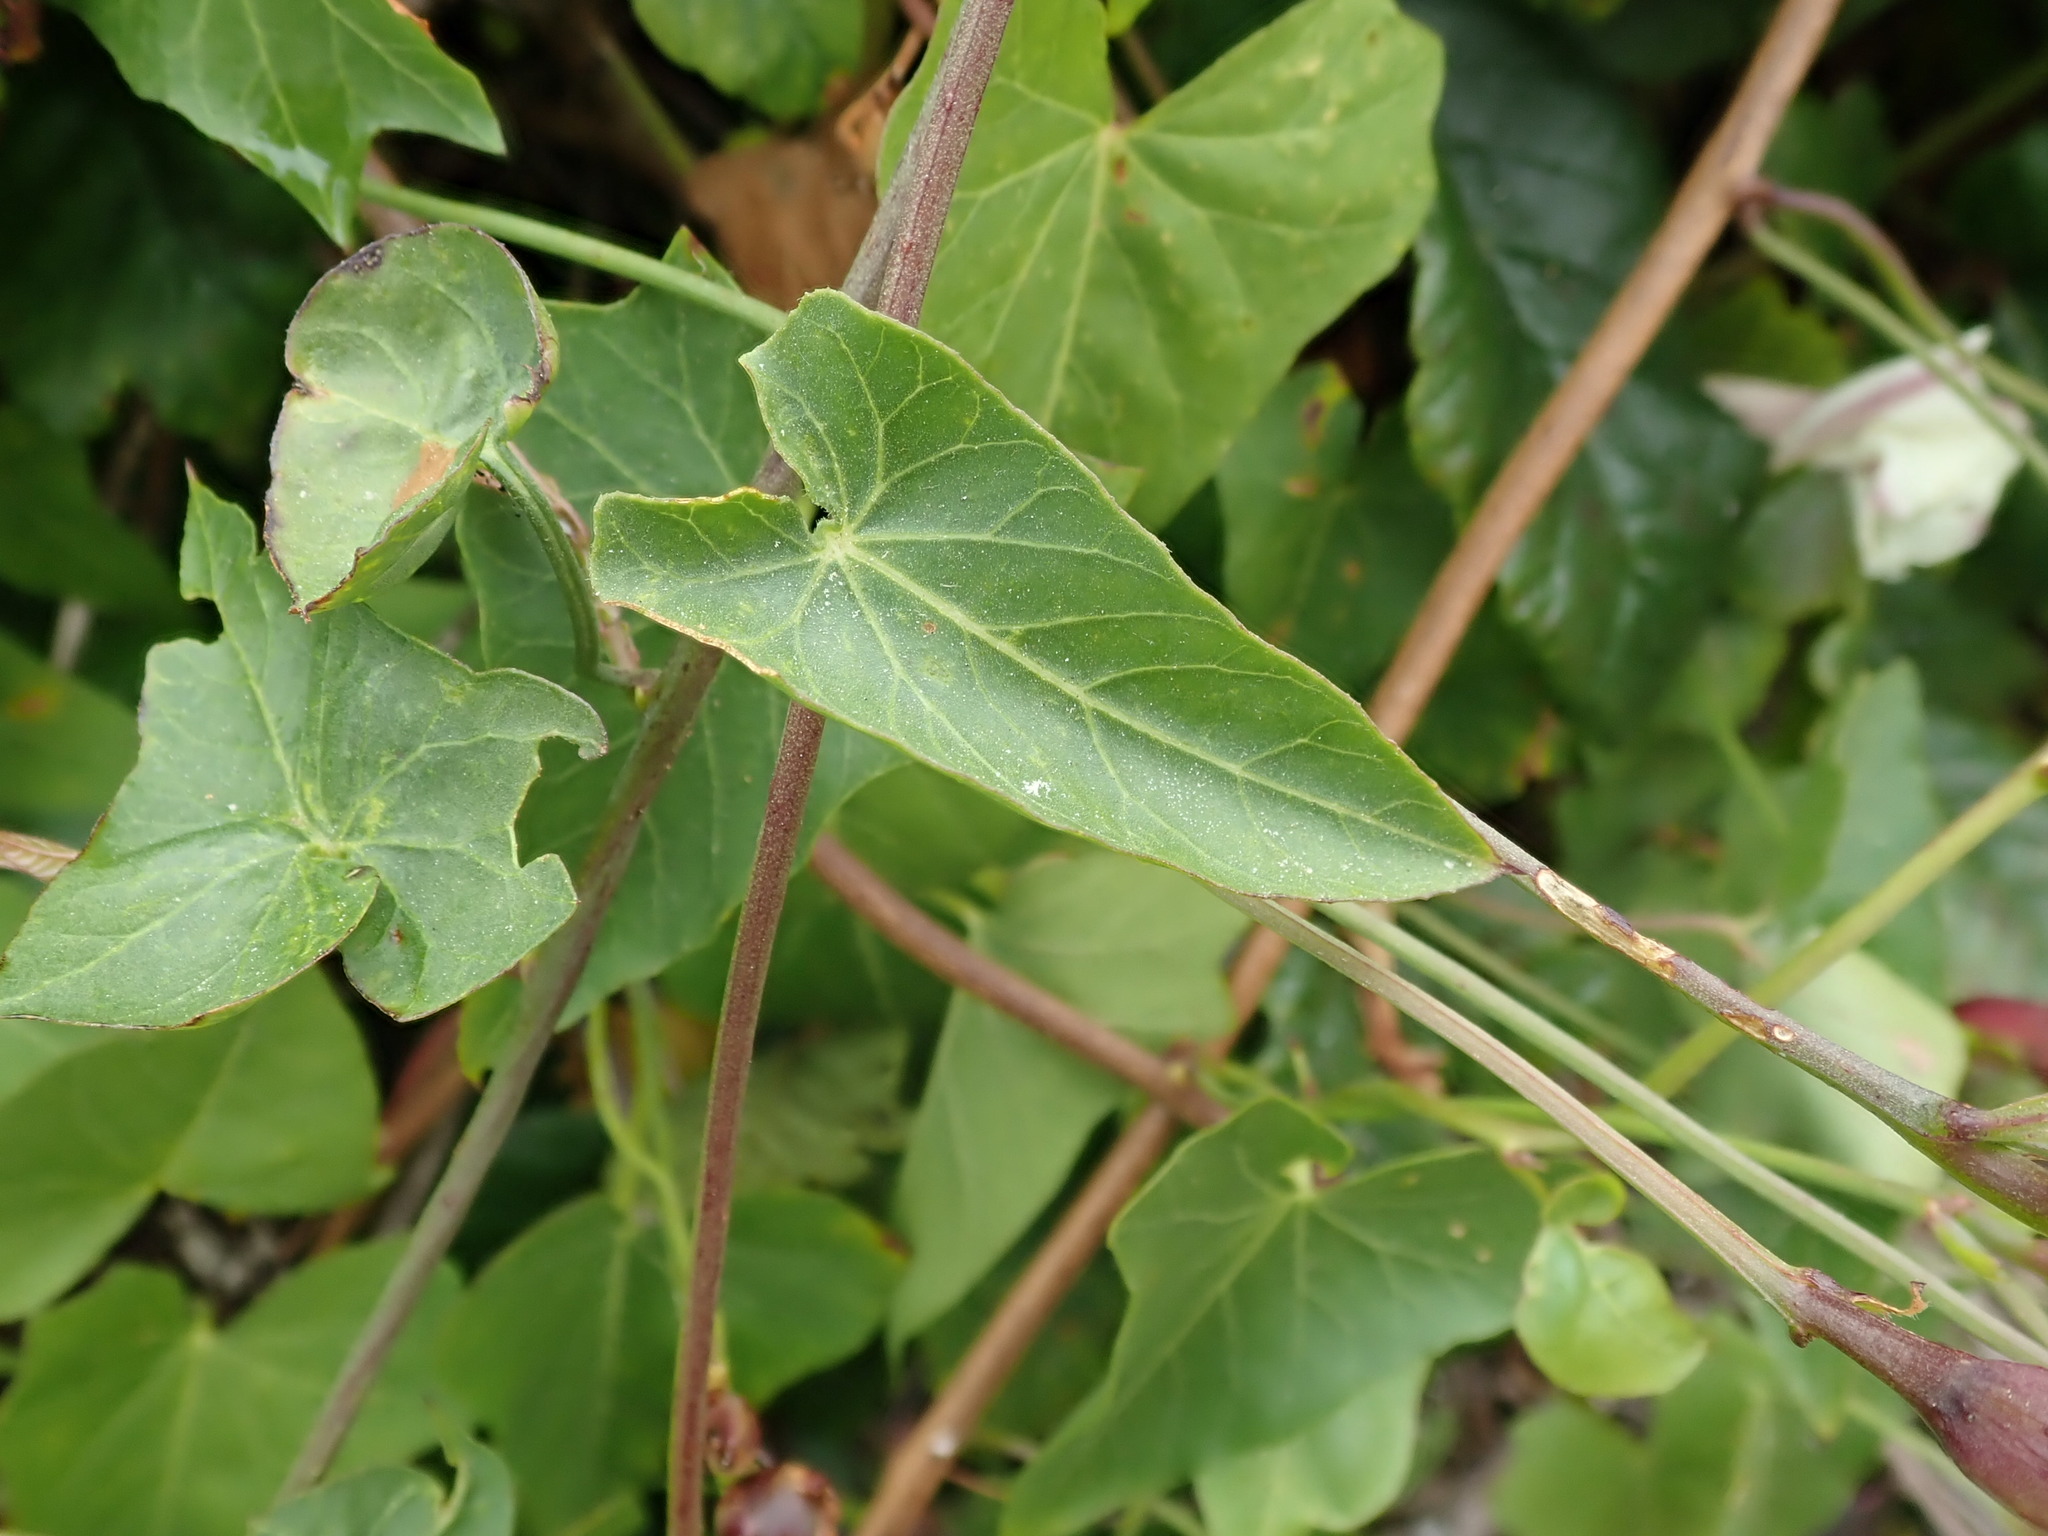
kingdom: Plantae
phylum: Tracheophyta
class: Magnoliopsida
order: Solanales
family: Convolvulaceae
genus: Calystegia
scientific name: Calystegia purpurata
